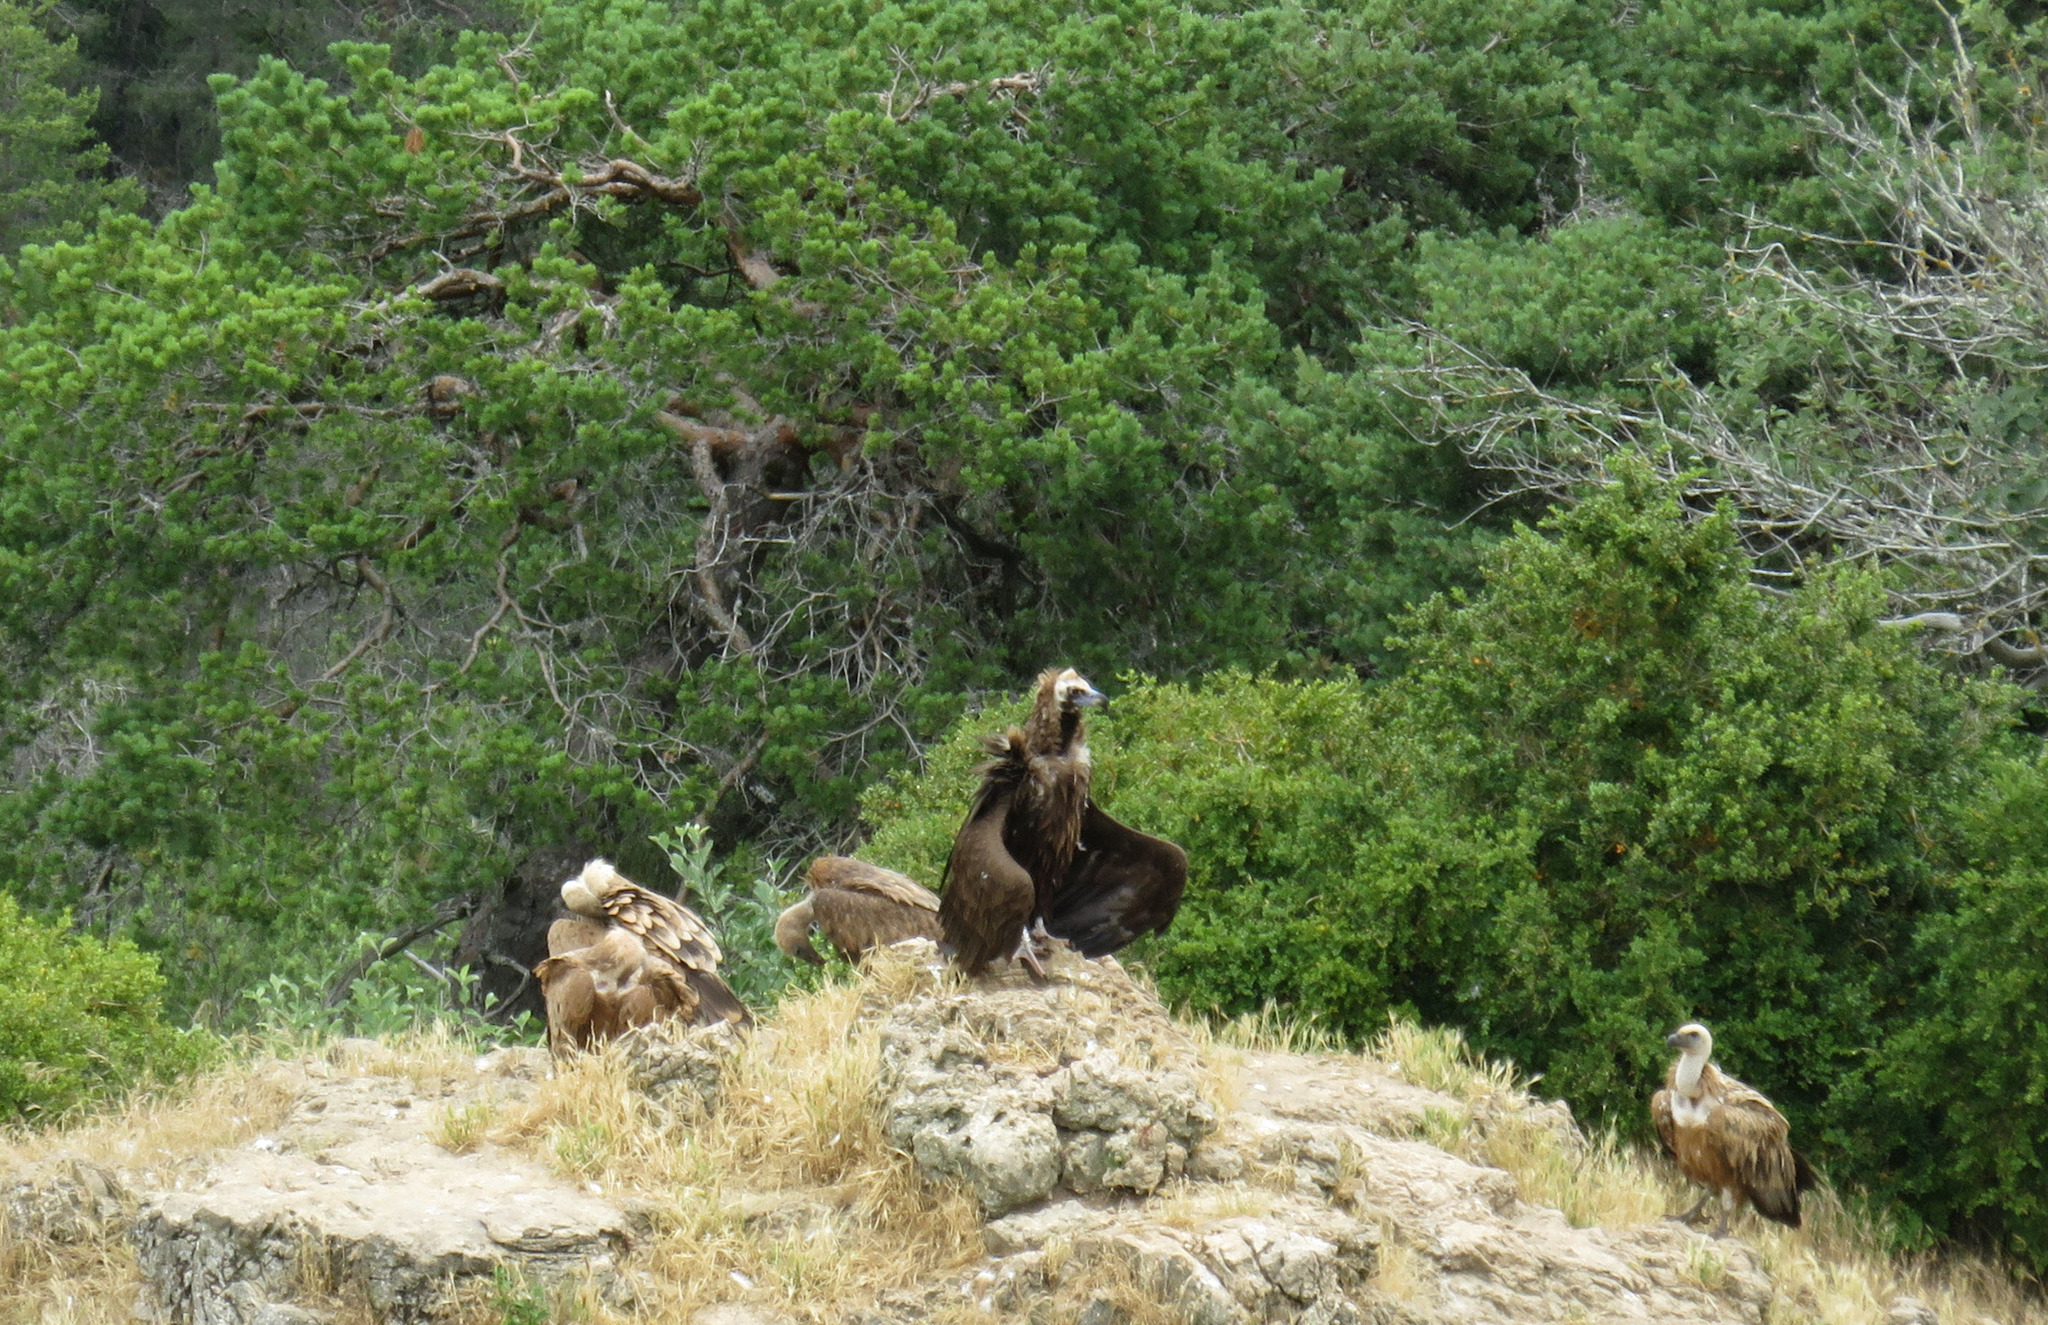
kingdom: Animalia
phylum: Chordata
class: Aves
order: Accipitriformes
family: Accipitridae
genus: Aegypius
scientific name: Aegypius monachus
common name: Cinereous vulture
